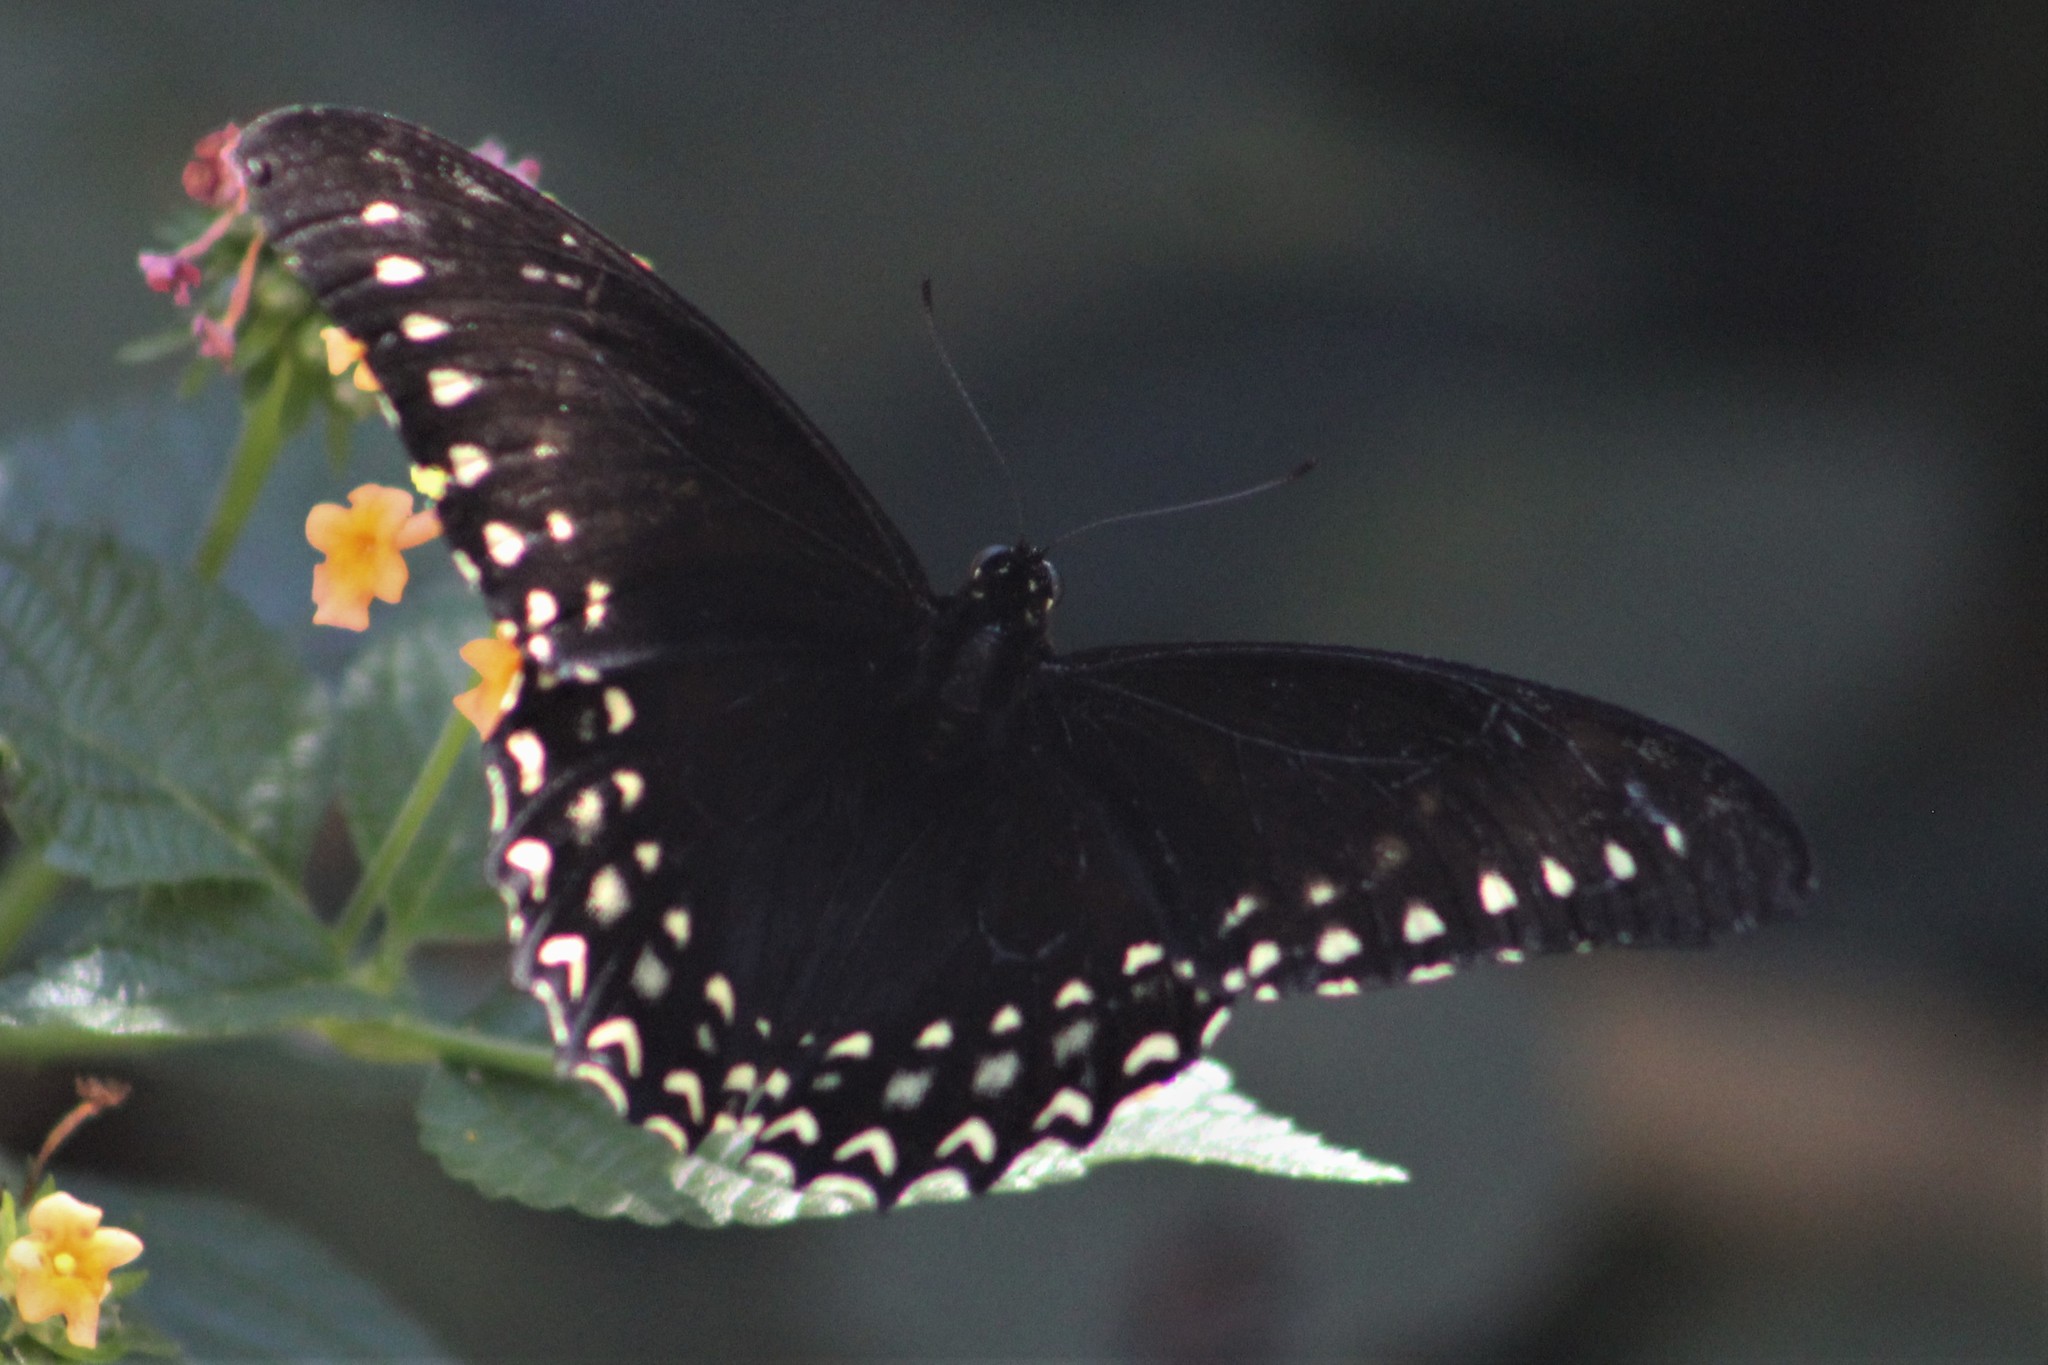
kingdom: Animalia
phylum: Arthropoda
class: Insecta
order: Lepidoptera
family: Papilionidae
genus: Papilio
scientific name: Papilio menatius
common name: Victorine swallowtail
